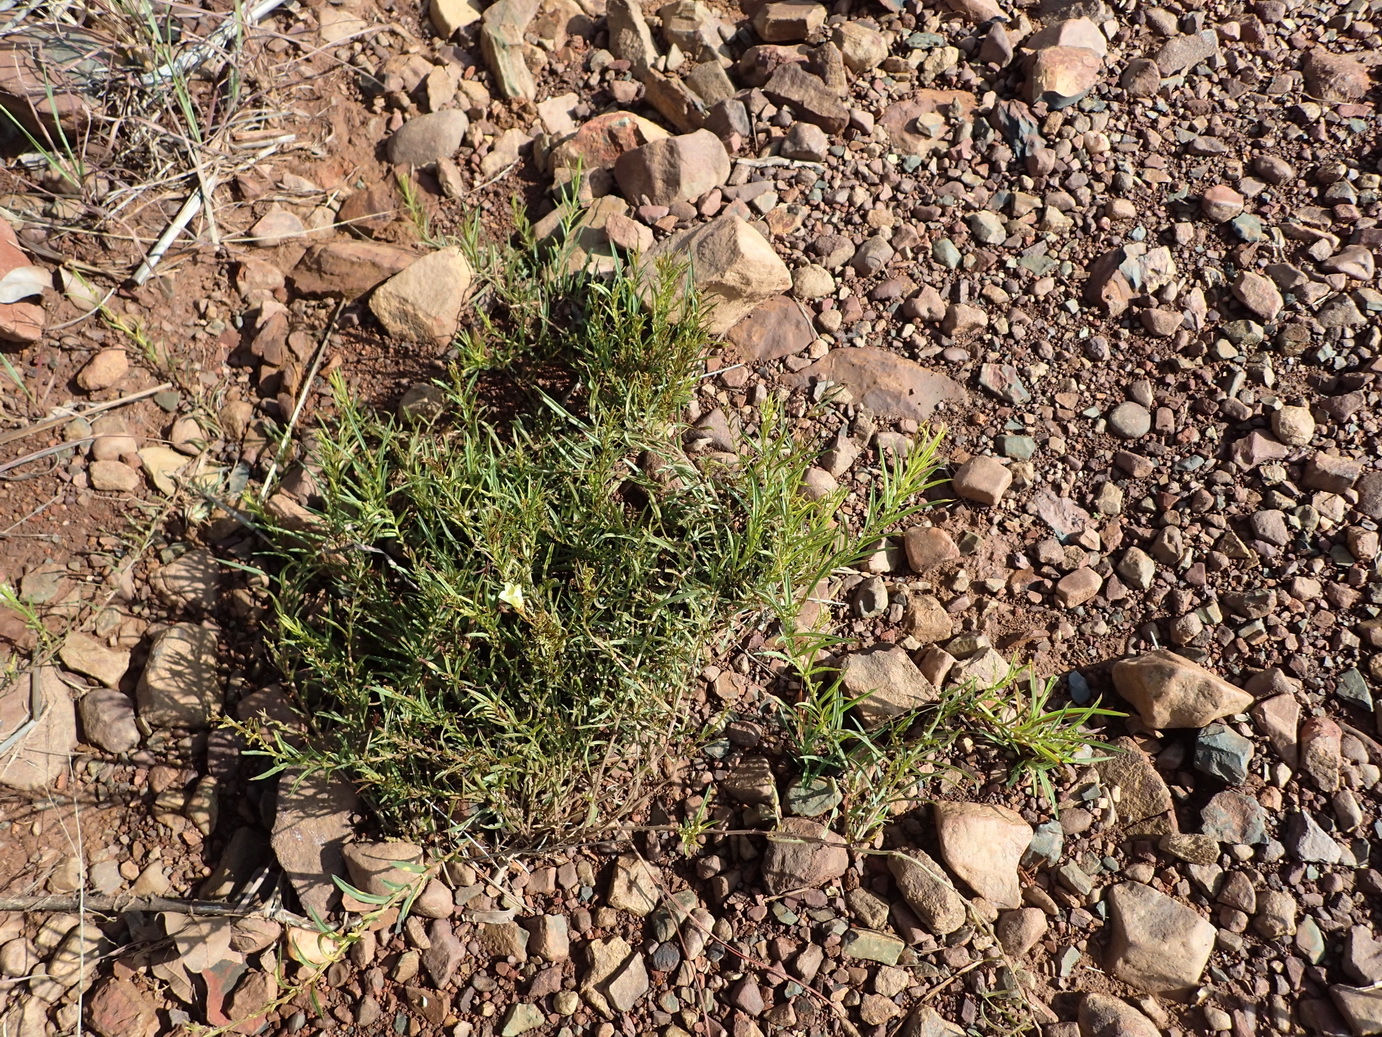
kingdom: Plantae
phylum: Tracheophyta
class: Magnoliopsida
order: Solanales
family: Convolvulaceae
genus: Xenostegia
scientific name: Xenostegia tridentata
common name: African morningvine
